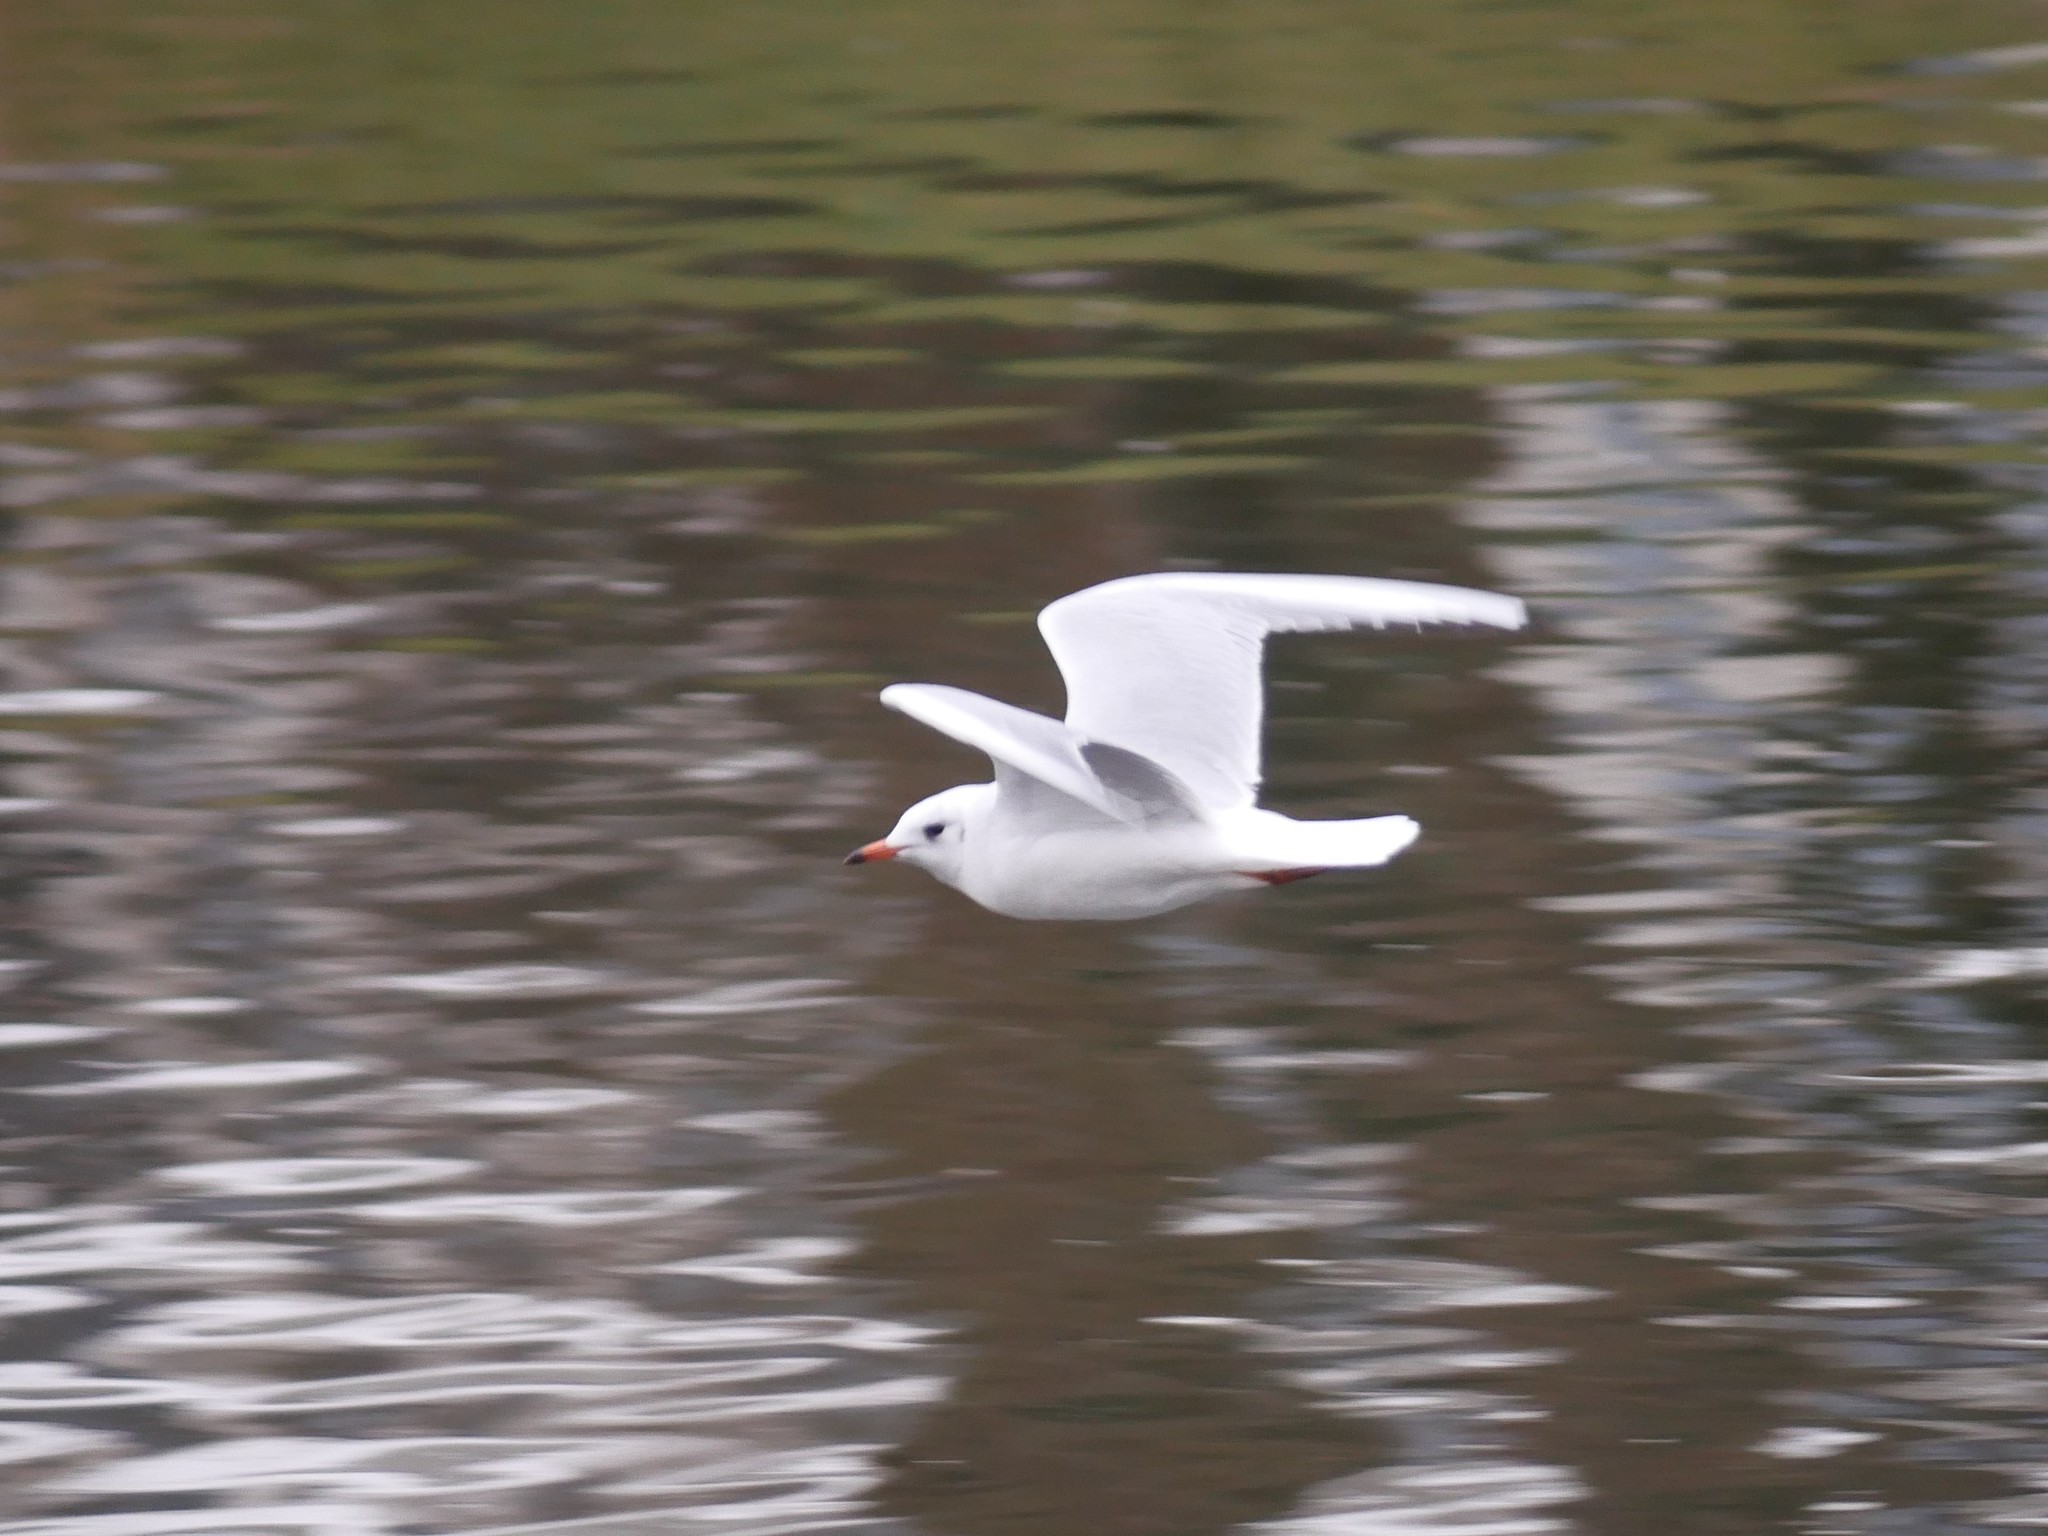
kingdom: Animalia
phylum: Chordata
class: Aves
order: Charadriiformes
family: Laridae
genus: Chroicocephalus
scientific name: Chroicocephalus ridibundus
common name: Black-headed gull
